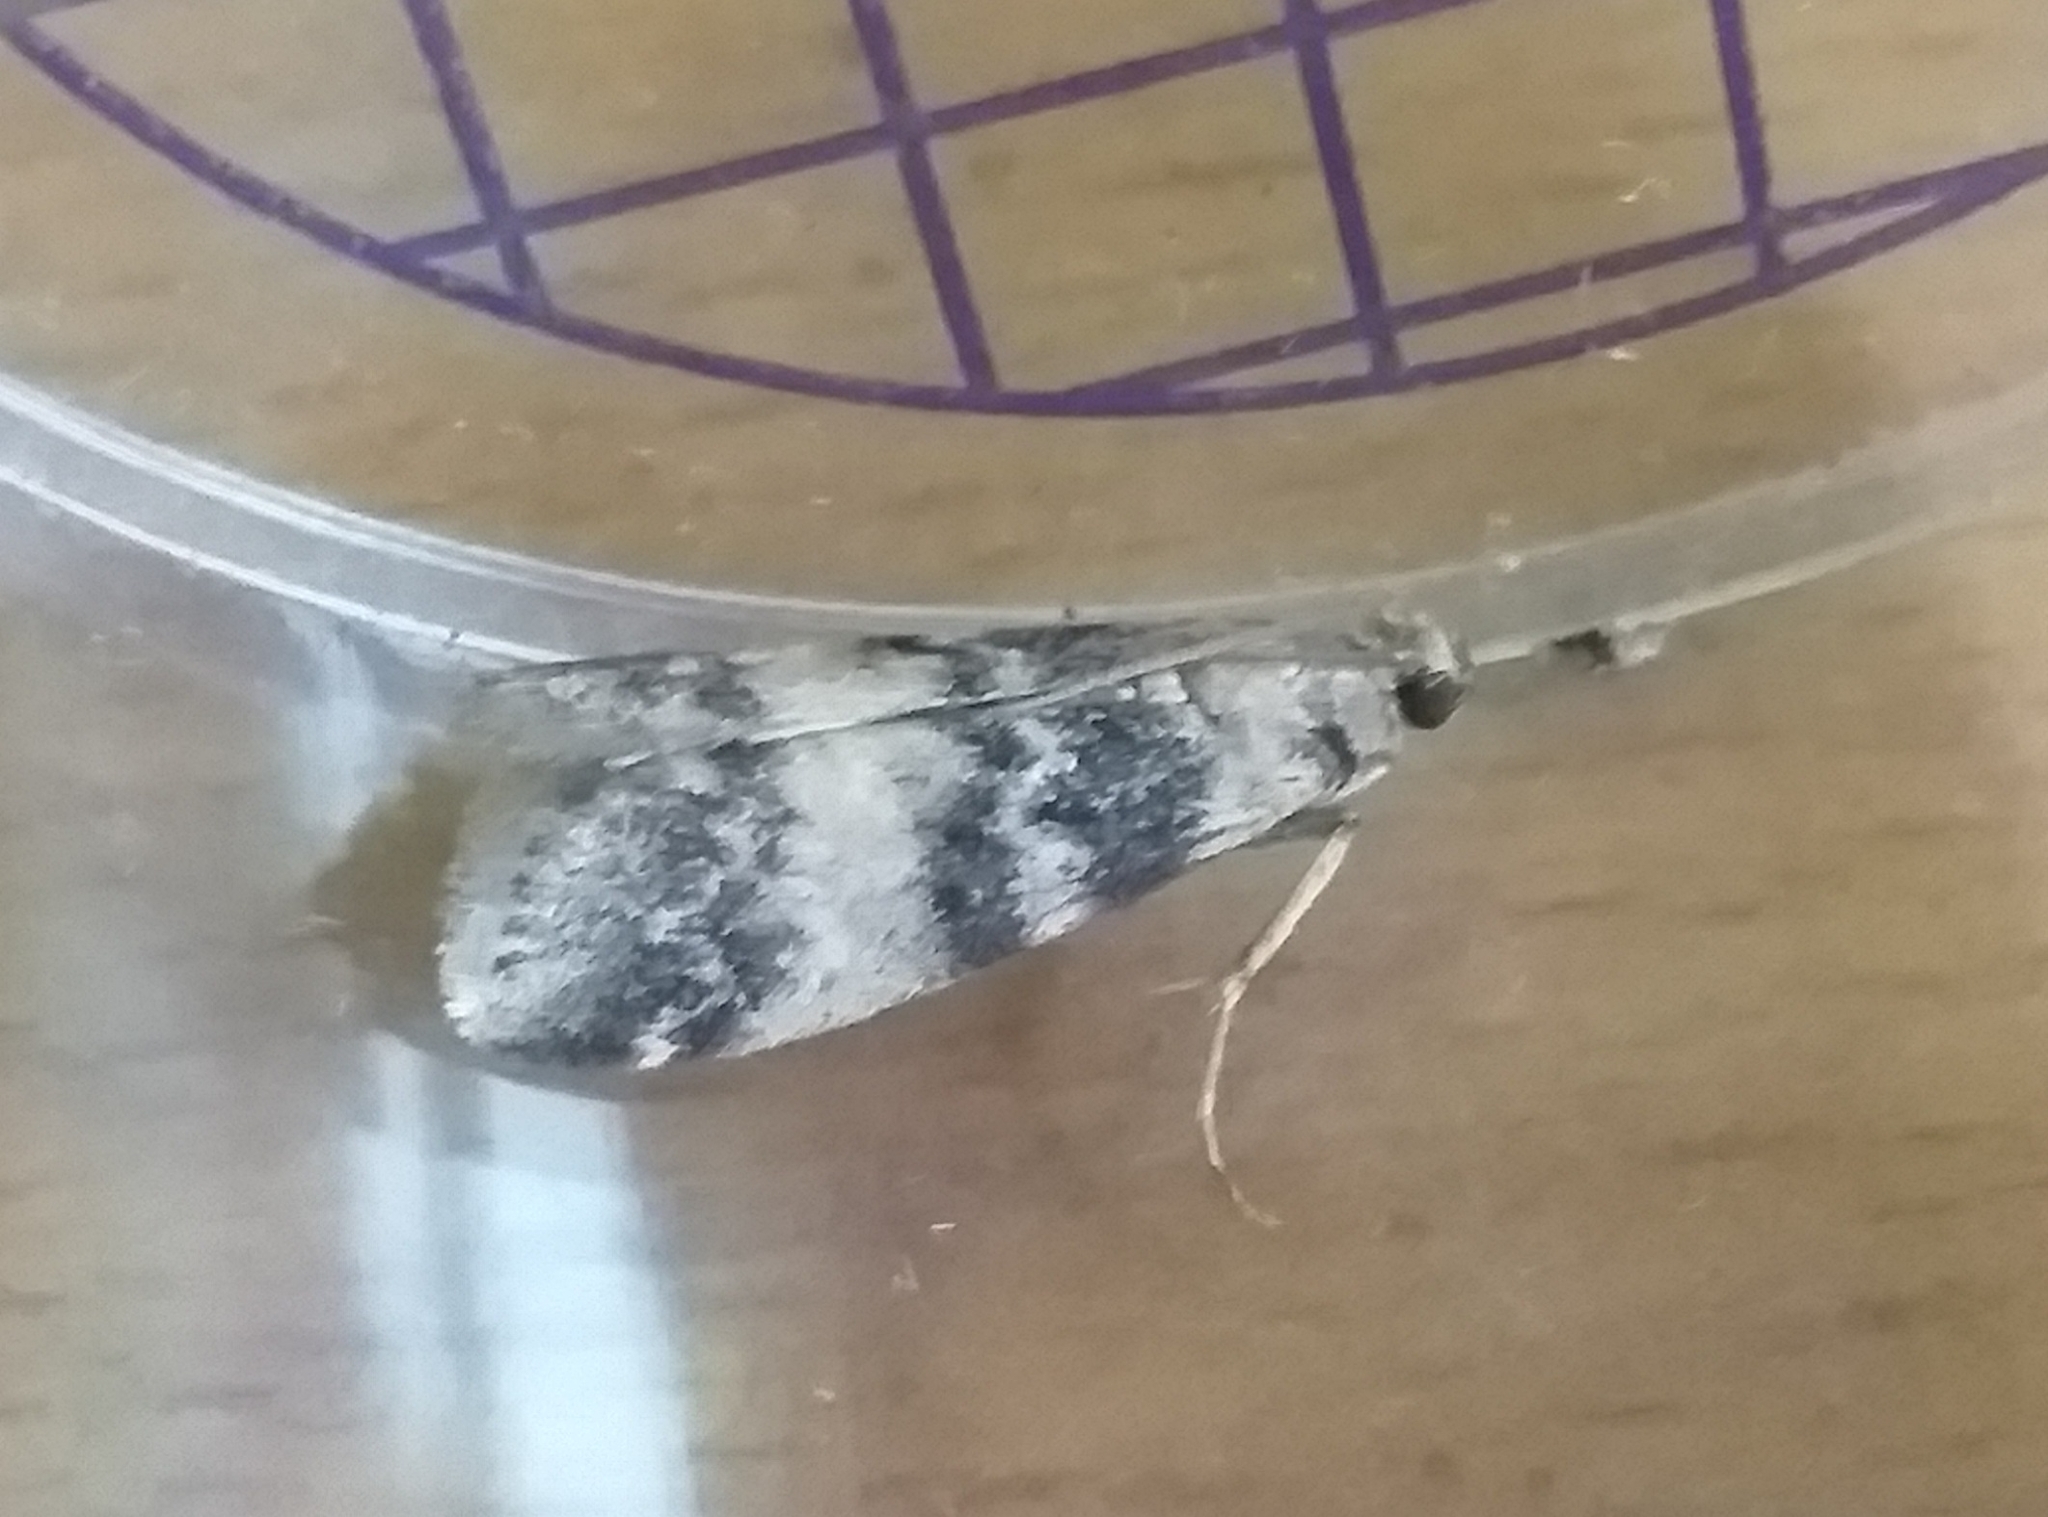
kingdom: Animalia
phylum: Arthropoda
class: Insecta
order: Lepidoptera
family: Pyralidae
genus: Euzophera
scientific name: Euzophera pinguis
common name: Ash-bark knot-horn
